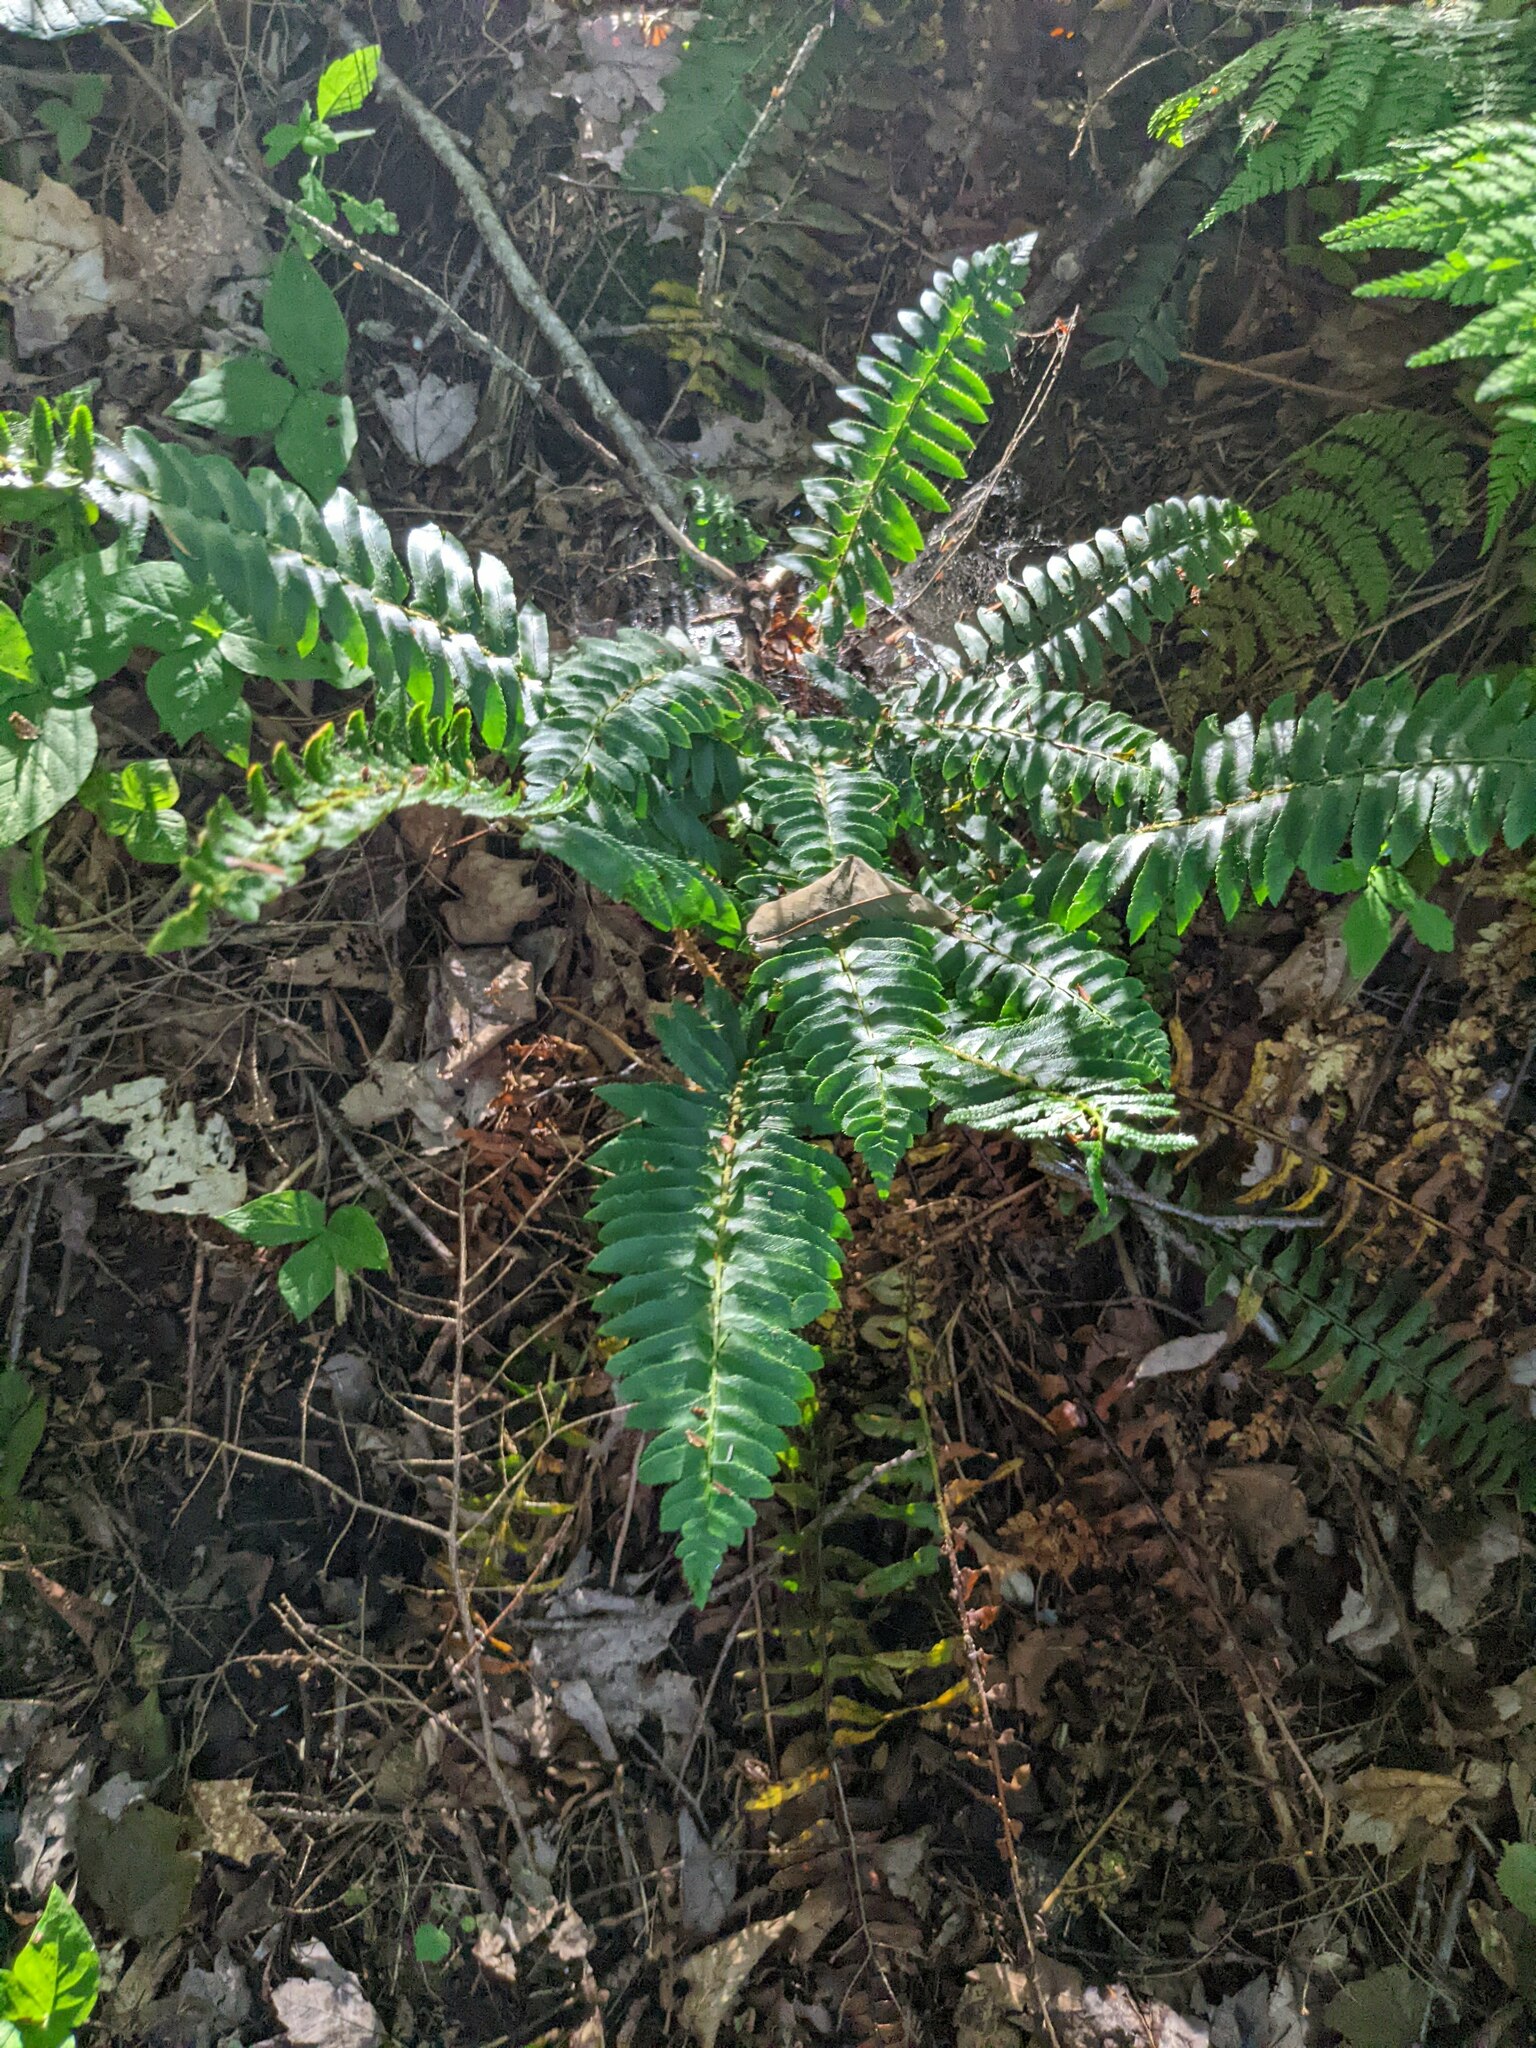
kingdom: Plantae
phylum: Tracheophyta
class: Polypodiopsida
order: Polypodiales
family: Dryopteridaceae
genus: Polystichum
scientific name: Polystichum acrostichoides
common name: Christmas fern
